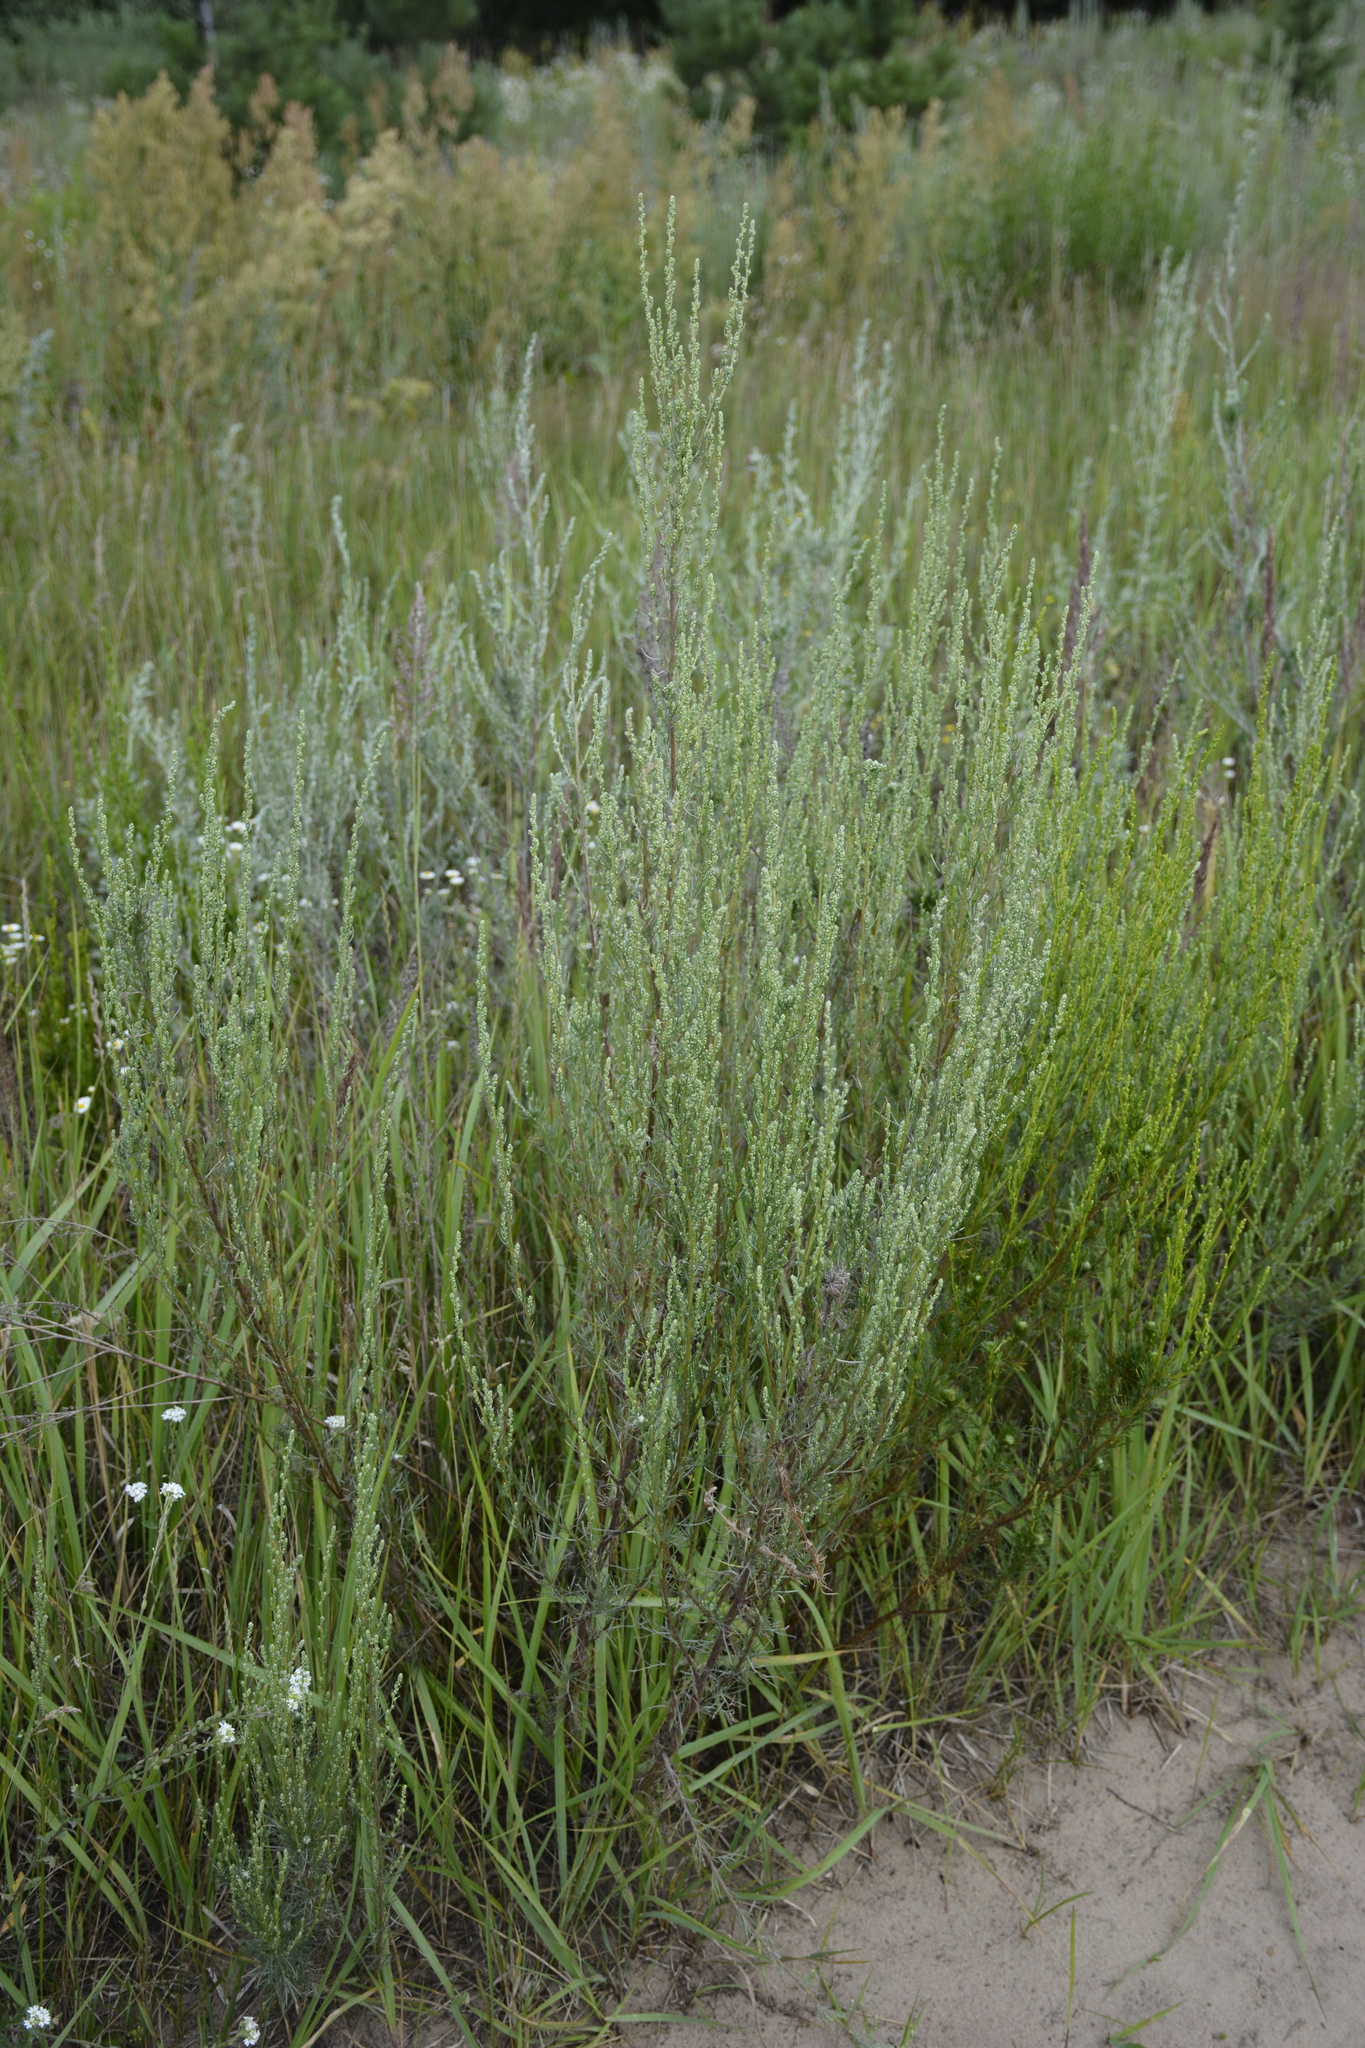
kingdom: Plantae
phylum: Tracheophyta
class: Magnoliopsida
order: Asterales
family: Asteraceae
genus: Artemisia
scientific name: Artemisia campestris
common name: Field wormwood
